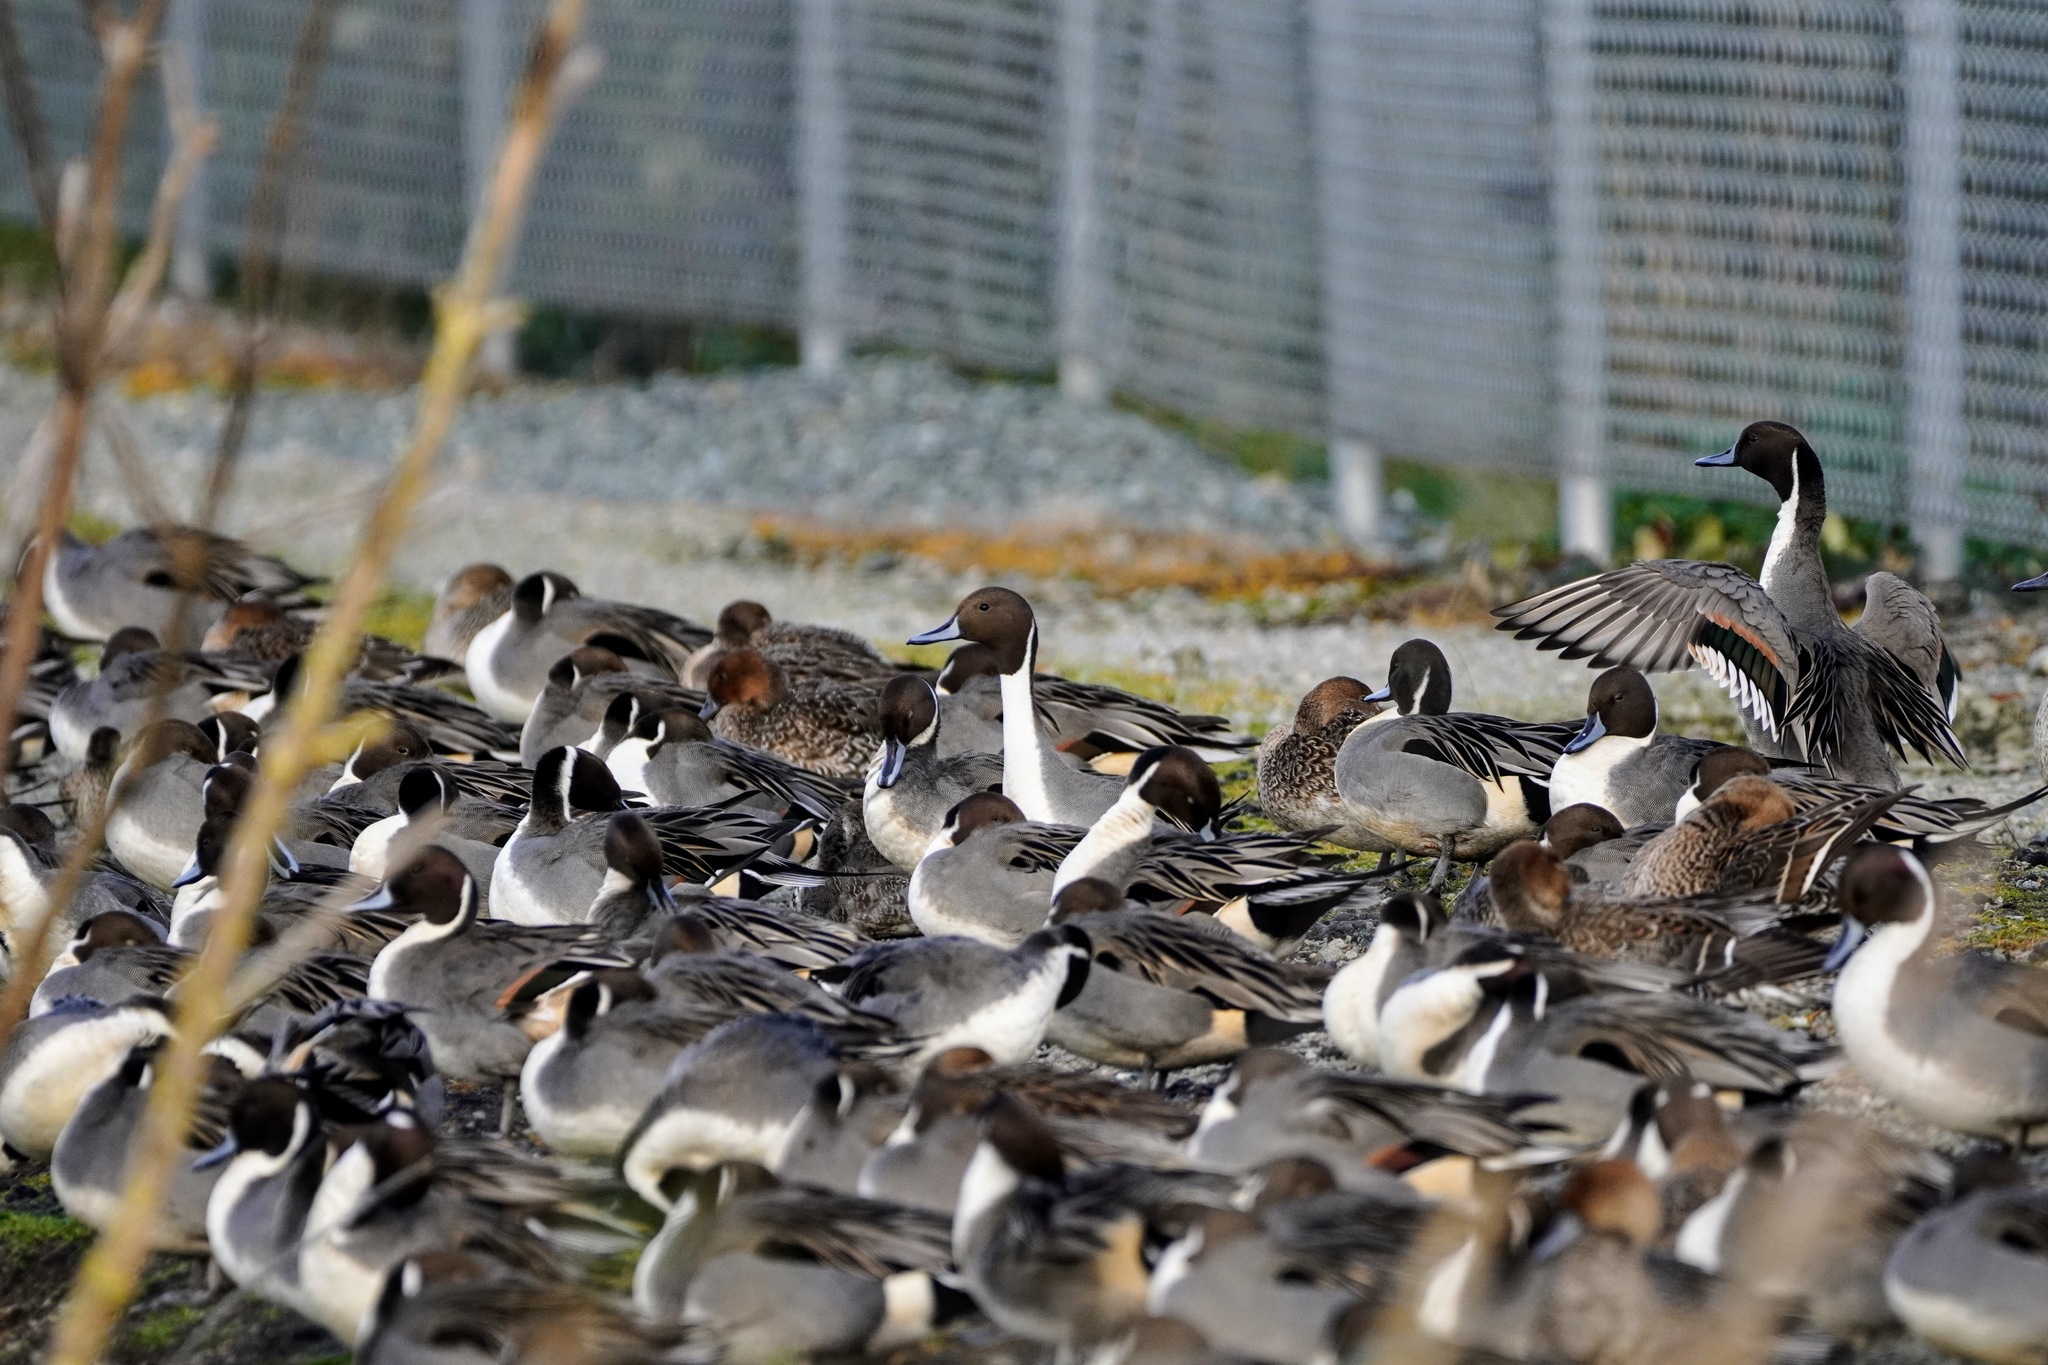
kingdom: Animalia
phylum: Chordata
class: Aves
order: Anseriformes
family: Anatidae
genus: Anas
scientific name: Anas acuta
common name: Northern pintail
